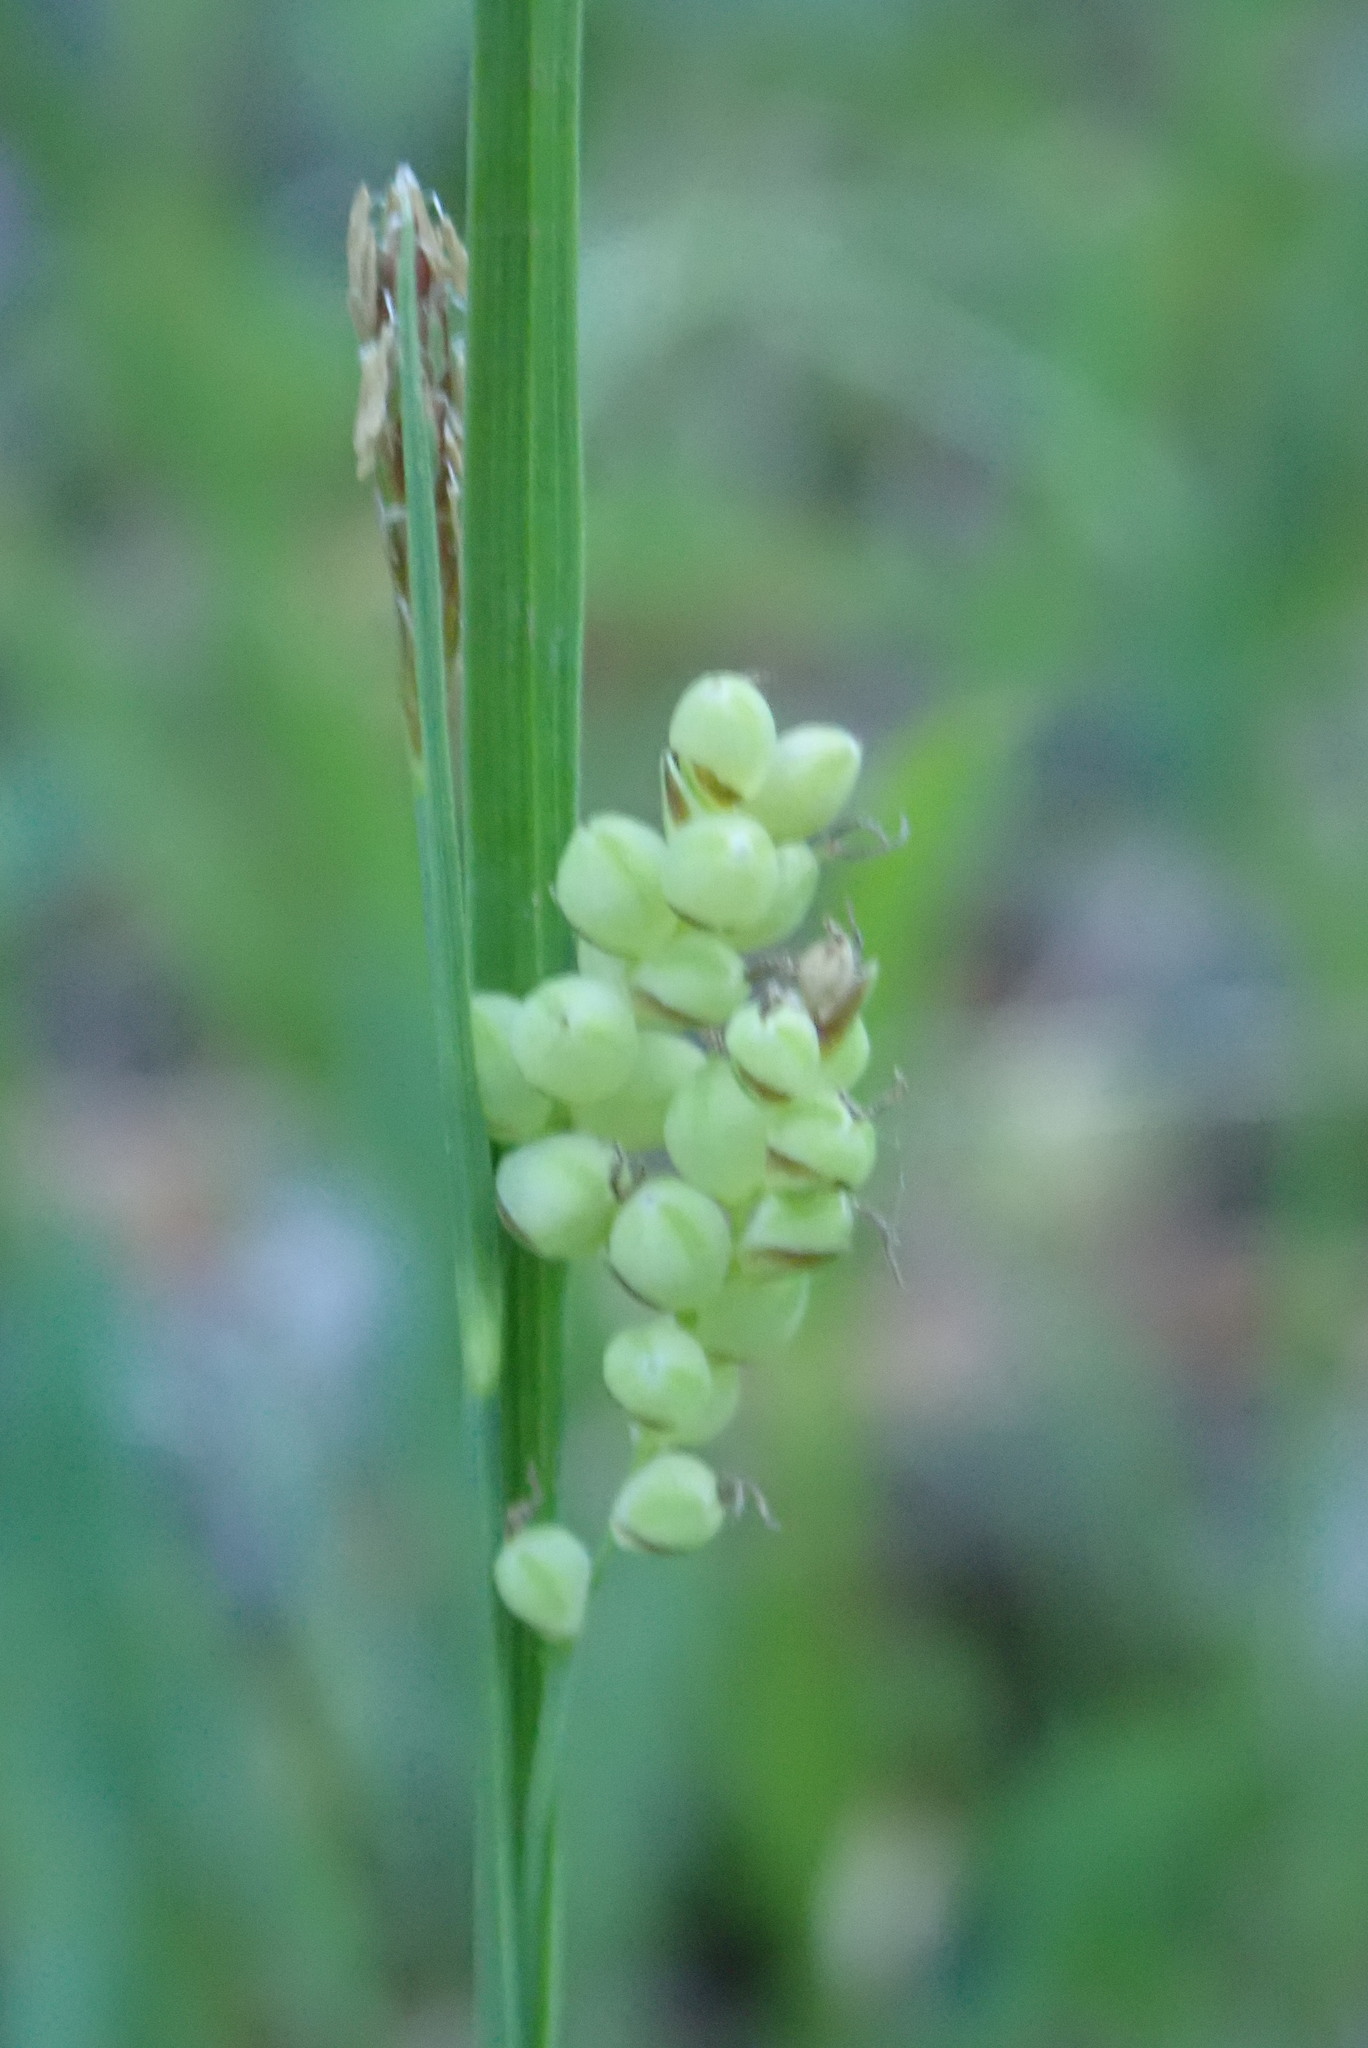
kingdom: Plantae
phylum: Tracheophyta
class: Liliopsida
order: Poales
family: Cyperaceae
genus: Carex
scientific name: Carex aurea
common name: Golden sedge
